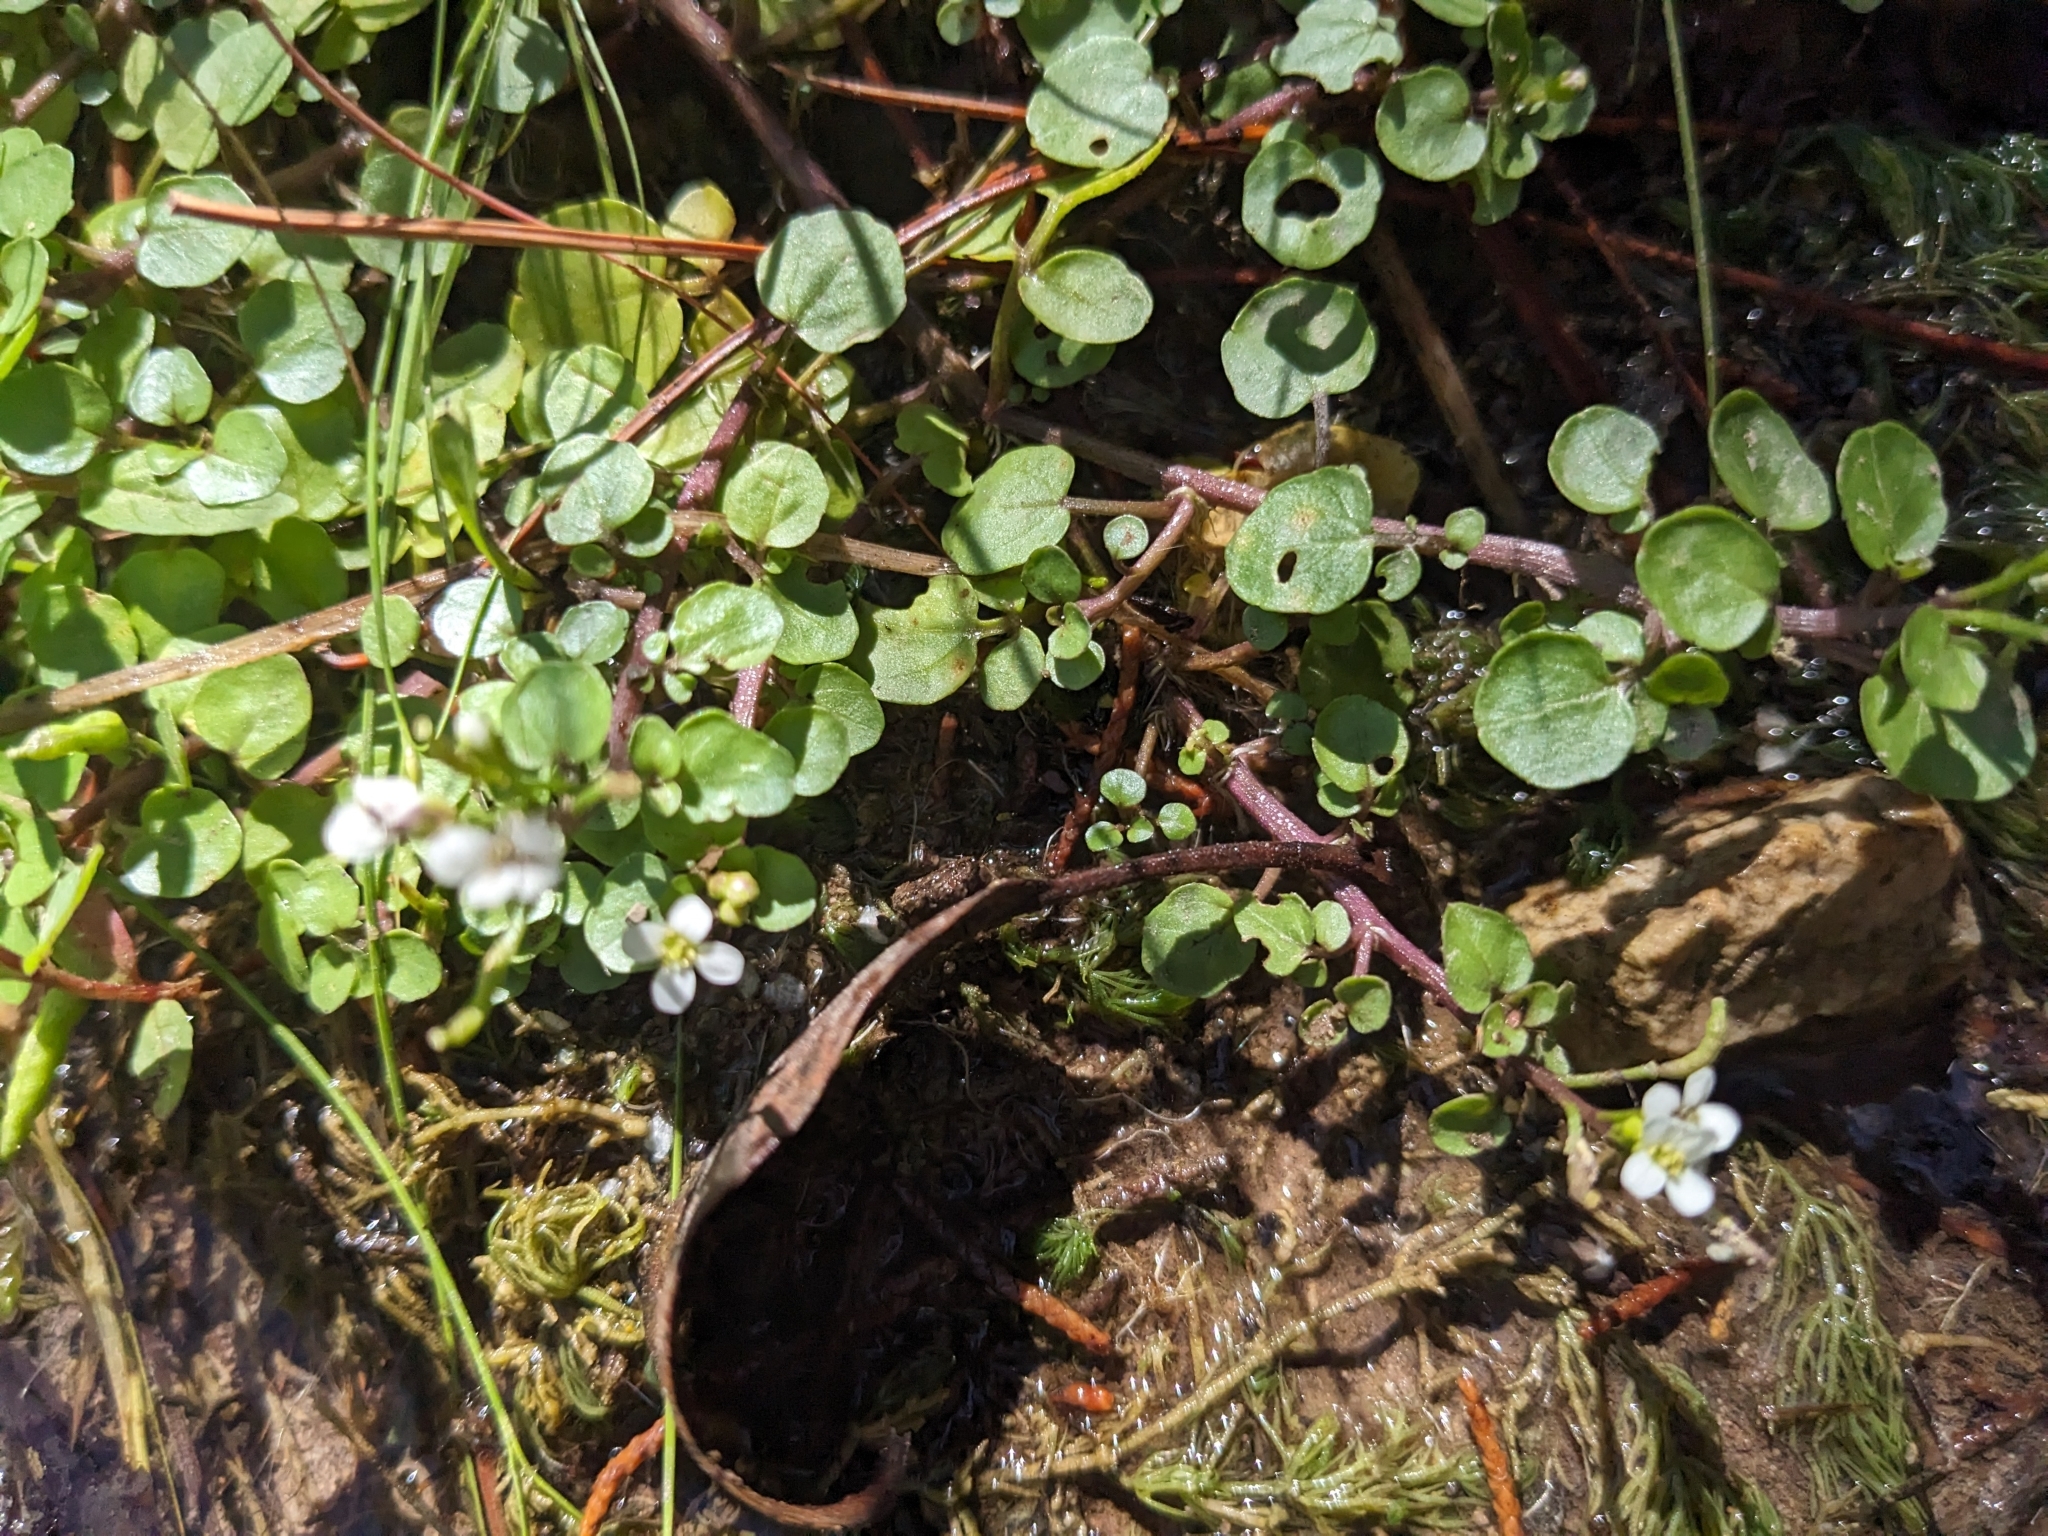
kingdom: Plantae
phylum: Tracheophyta
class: Magnoliopsida
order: Brassicales
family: Brassicaceae
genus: Nasturtium
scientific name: Nasturtium officinale
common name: Watercress
